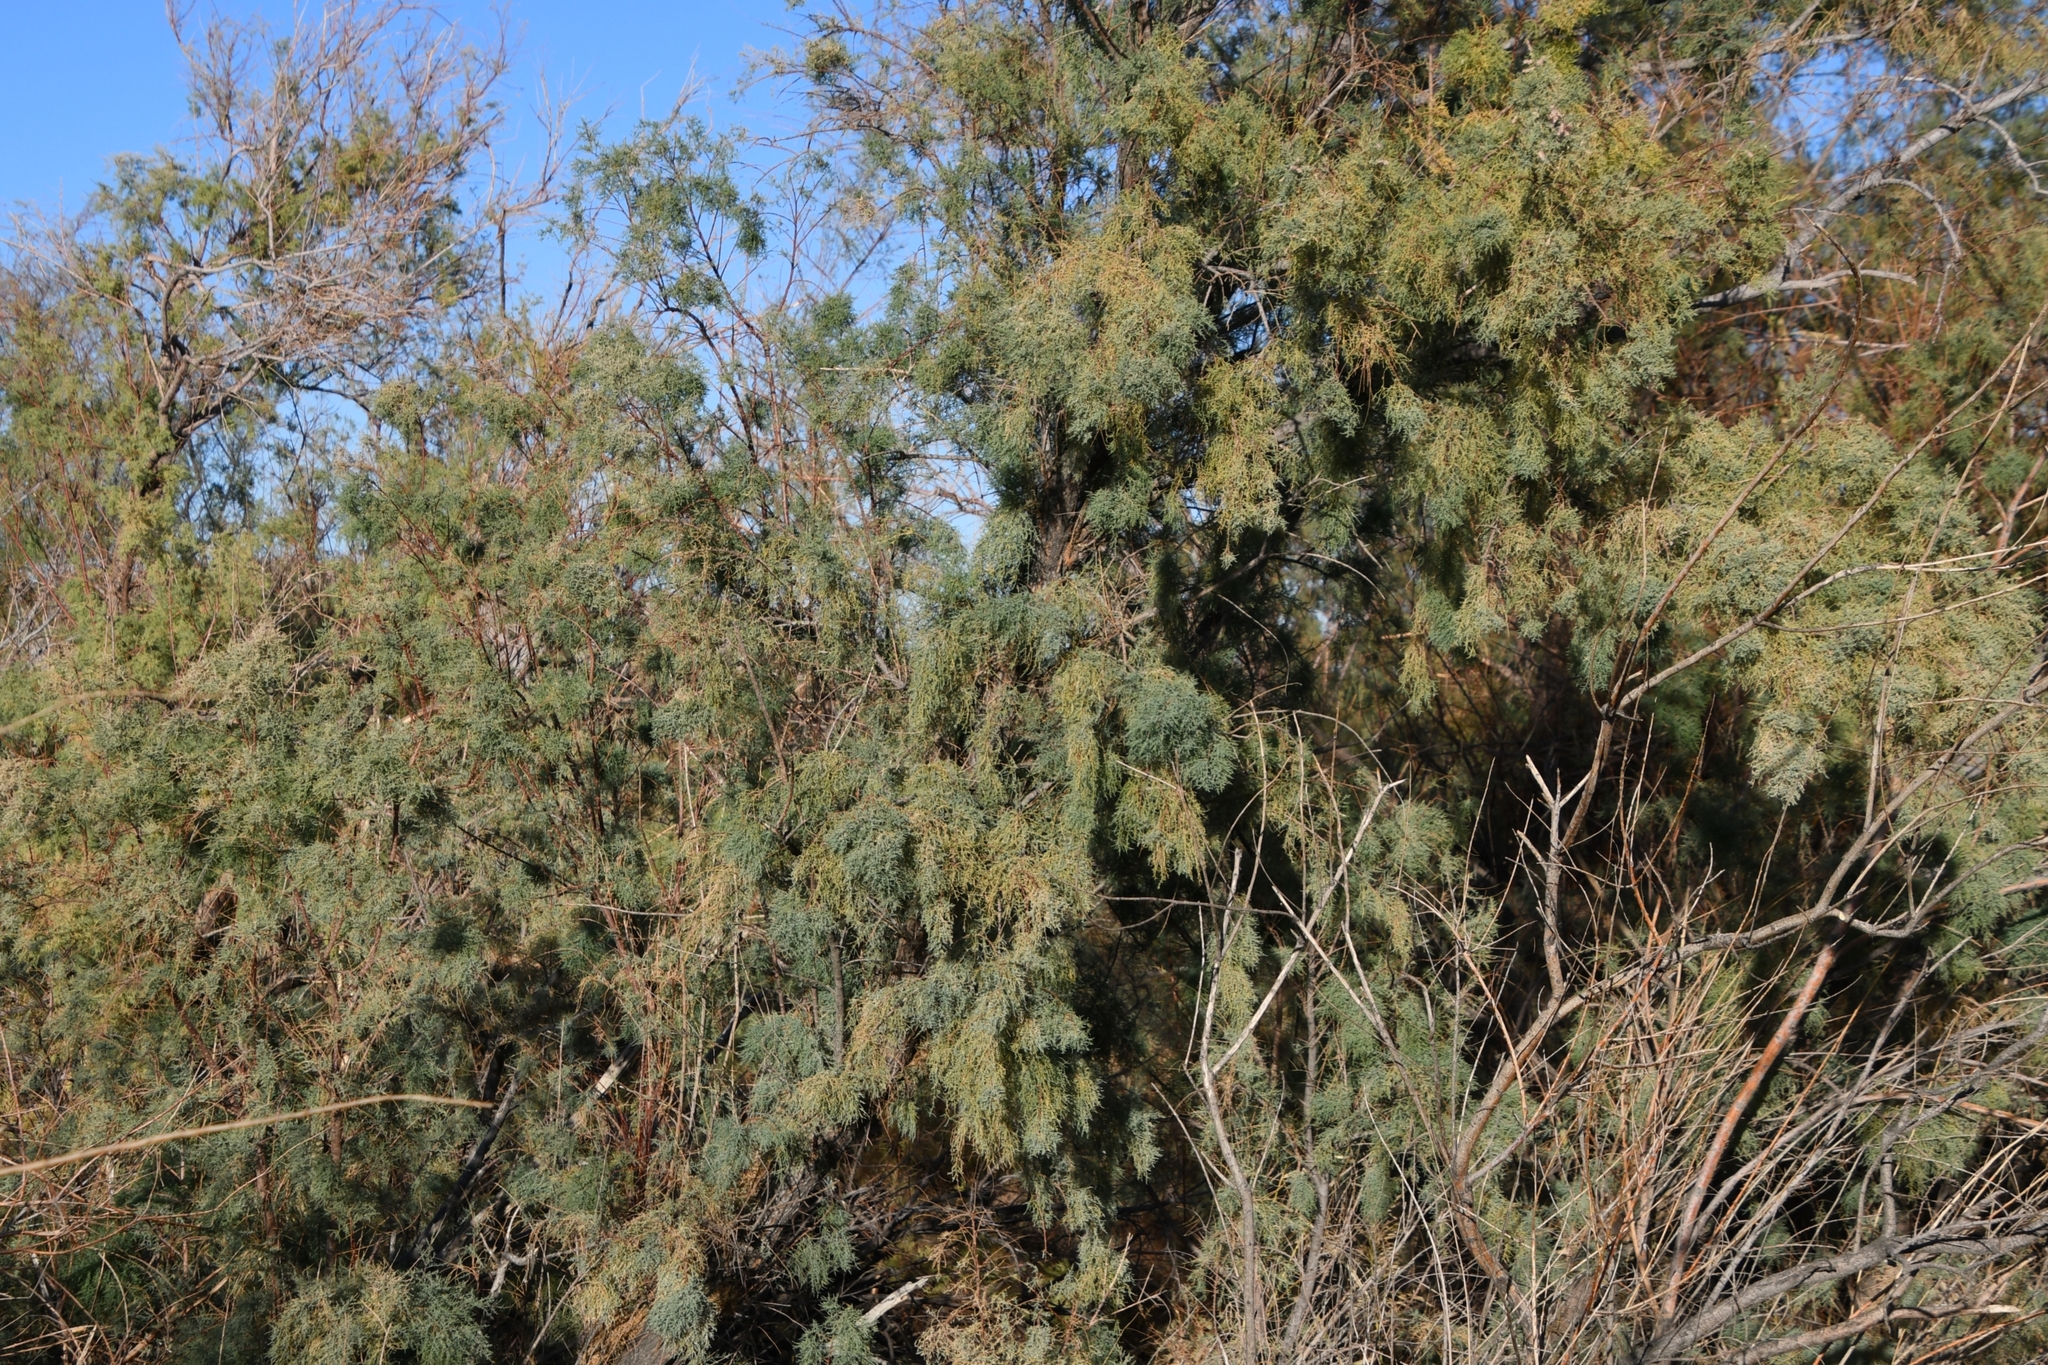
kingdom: Plantae
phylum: Tracheophyta
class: Magnoliopsida
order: Caryophyllales
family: Tamaricaceae
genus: Tamarix
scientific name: Tamarix ramosissima
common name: Pink tamarisk
